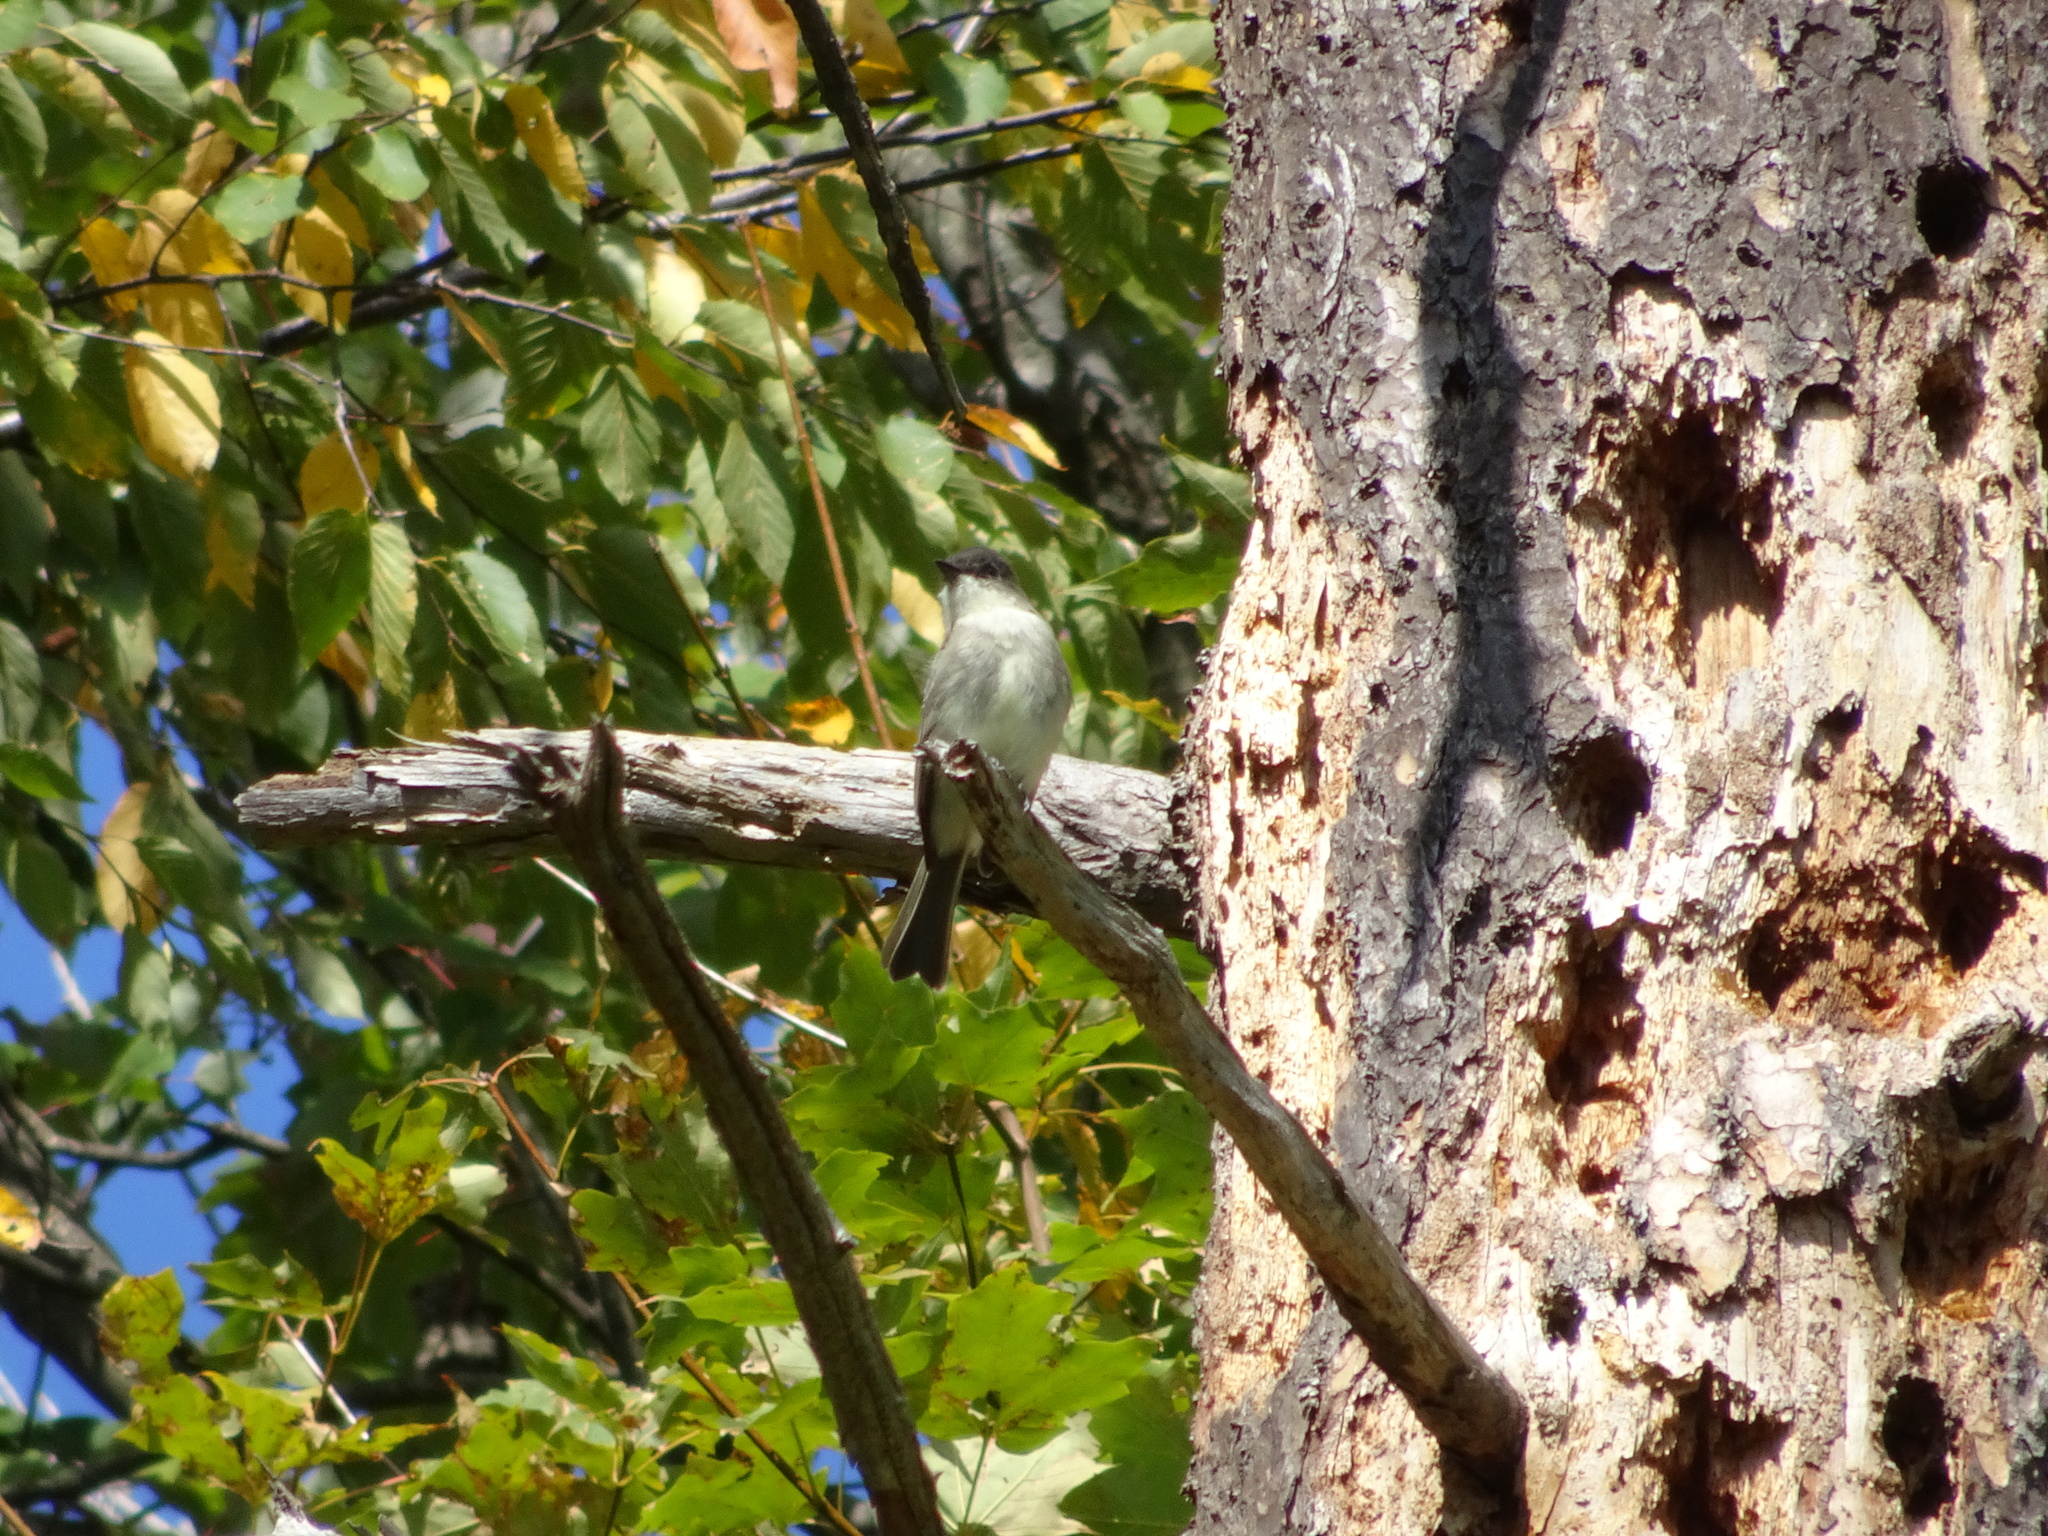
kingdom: Animalia
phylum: Chordata
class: Aves
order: Passeriformes
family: Tyrannidae
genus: Sayornis
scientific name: Sayornis phoebe
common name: Eastern phoebe
